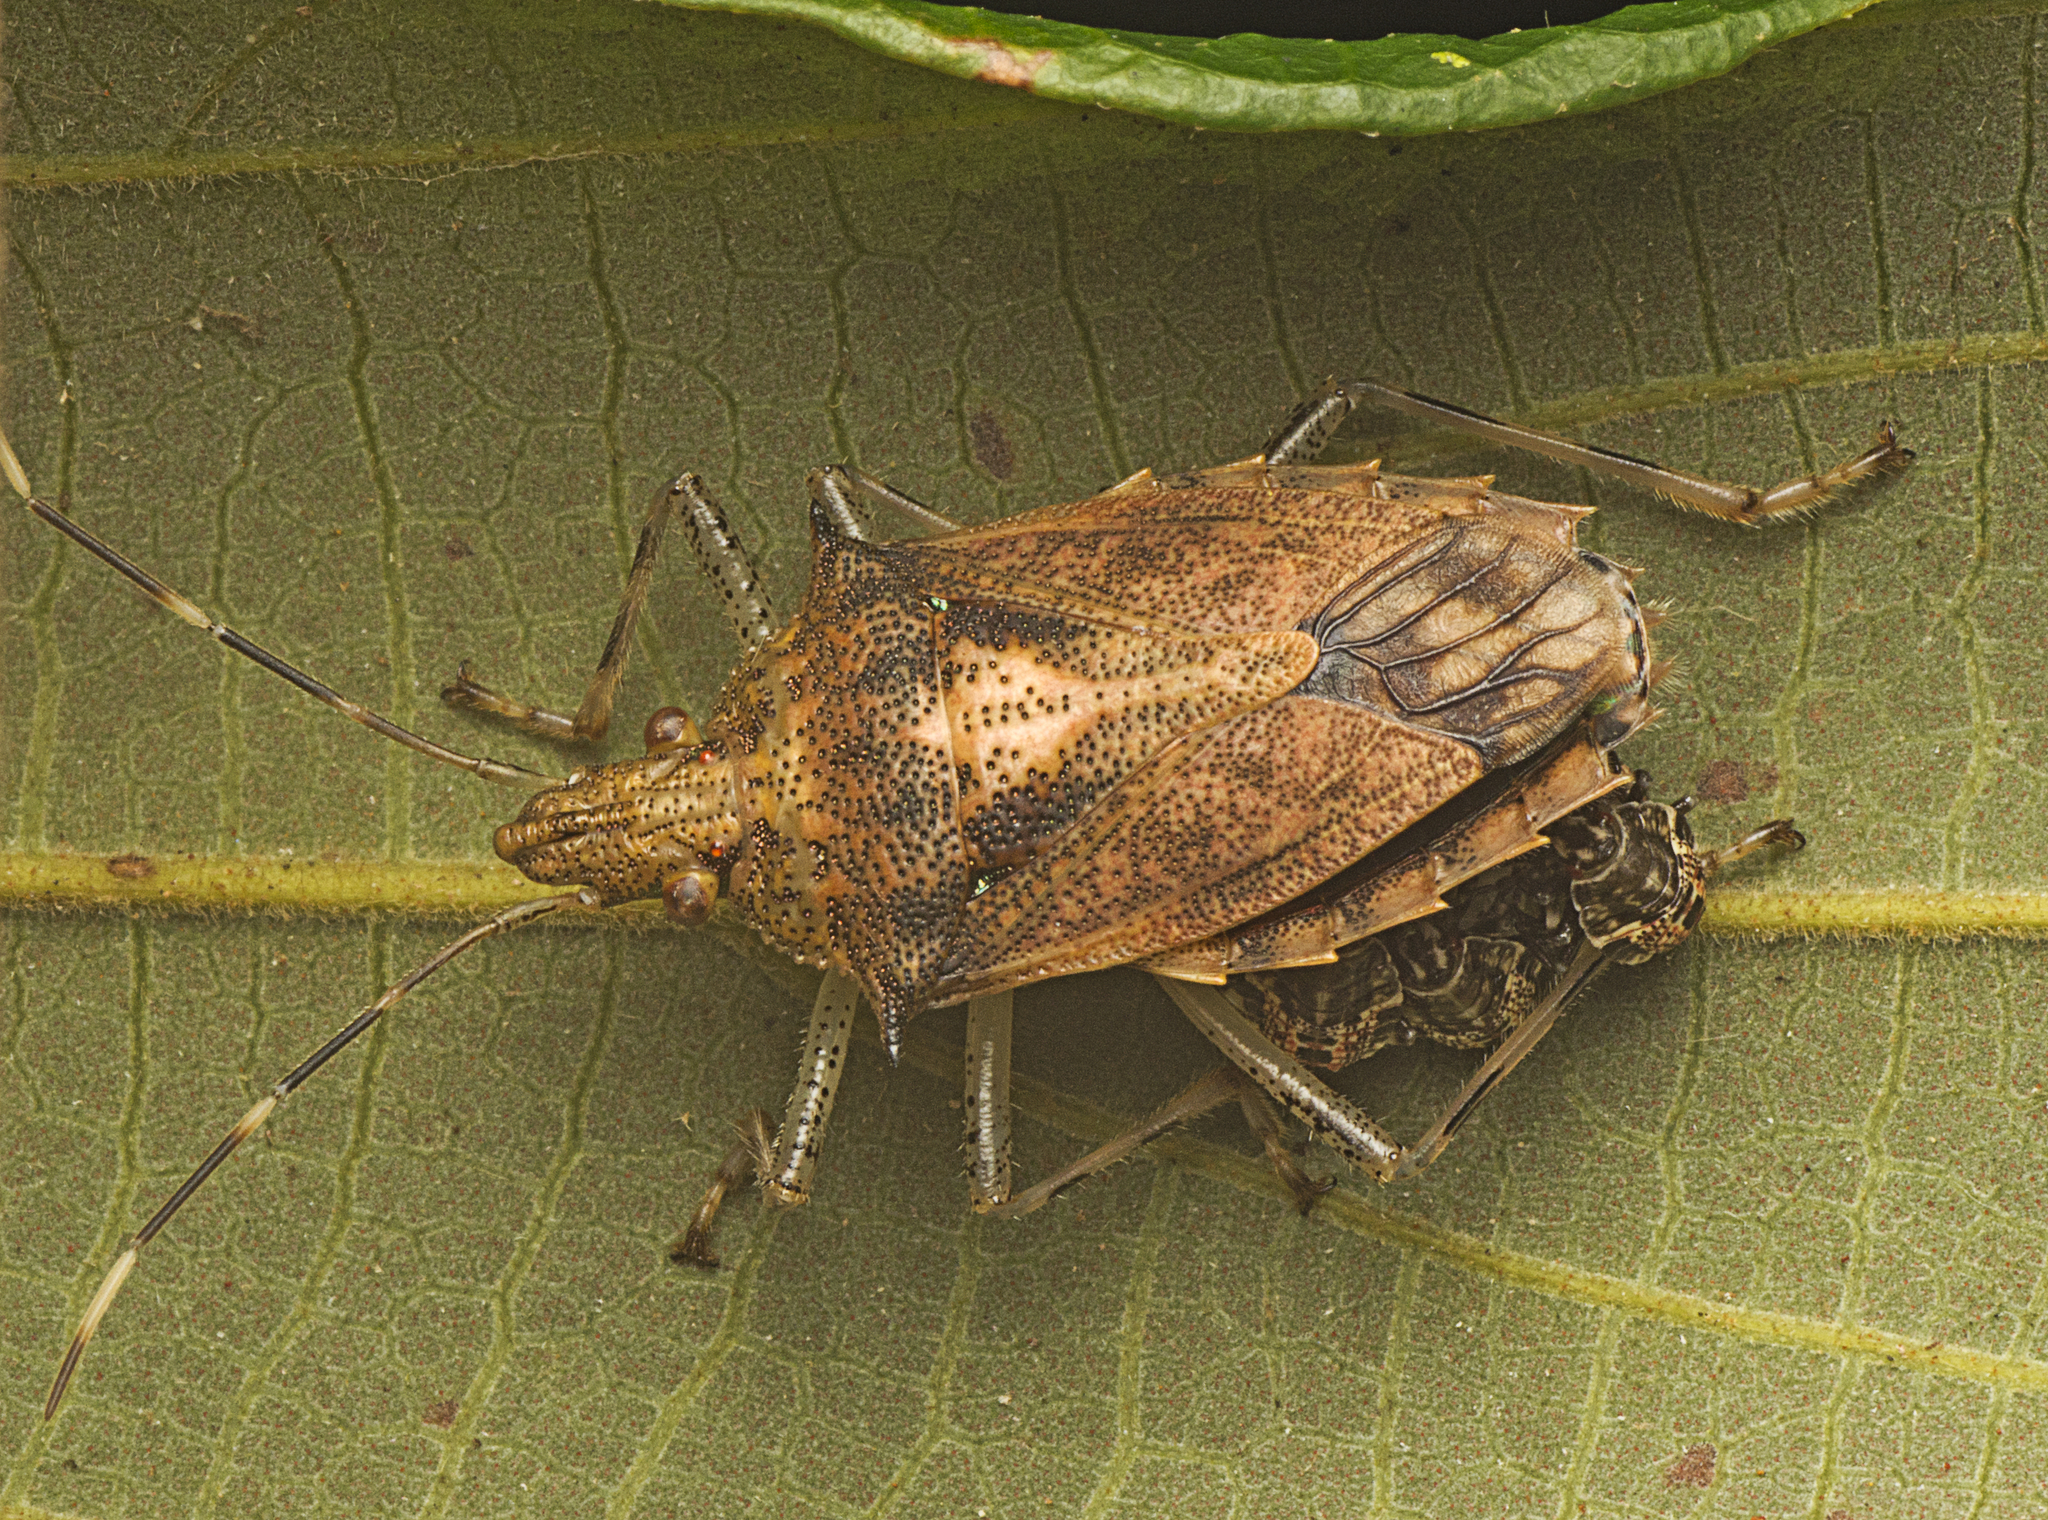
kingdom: Animalia
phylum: Arthropoda
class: Insecta
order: Hemiptera
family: Pentatomidae
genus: Bromocoris
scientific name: Bromocoris
